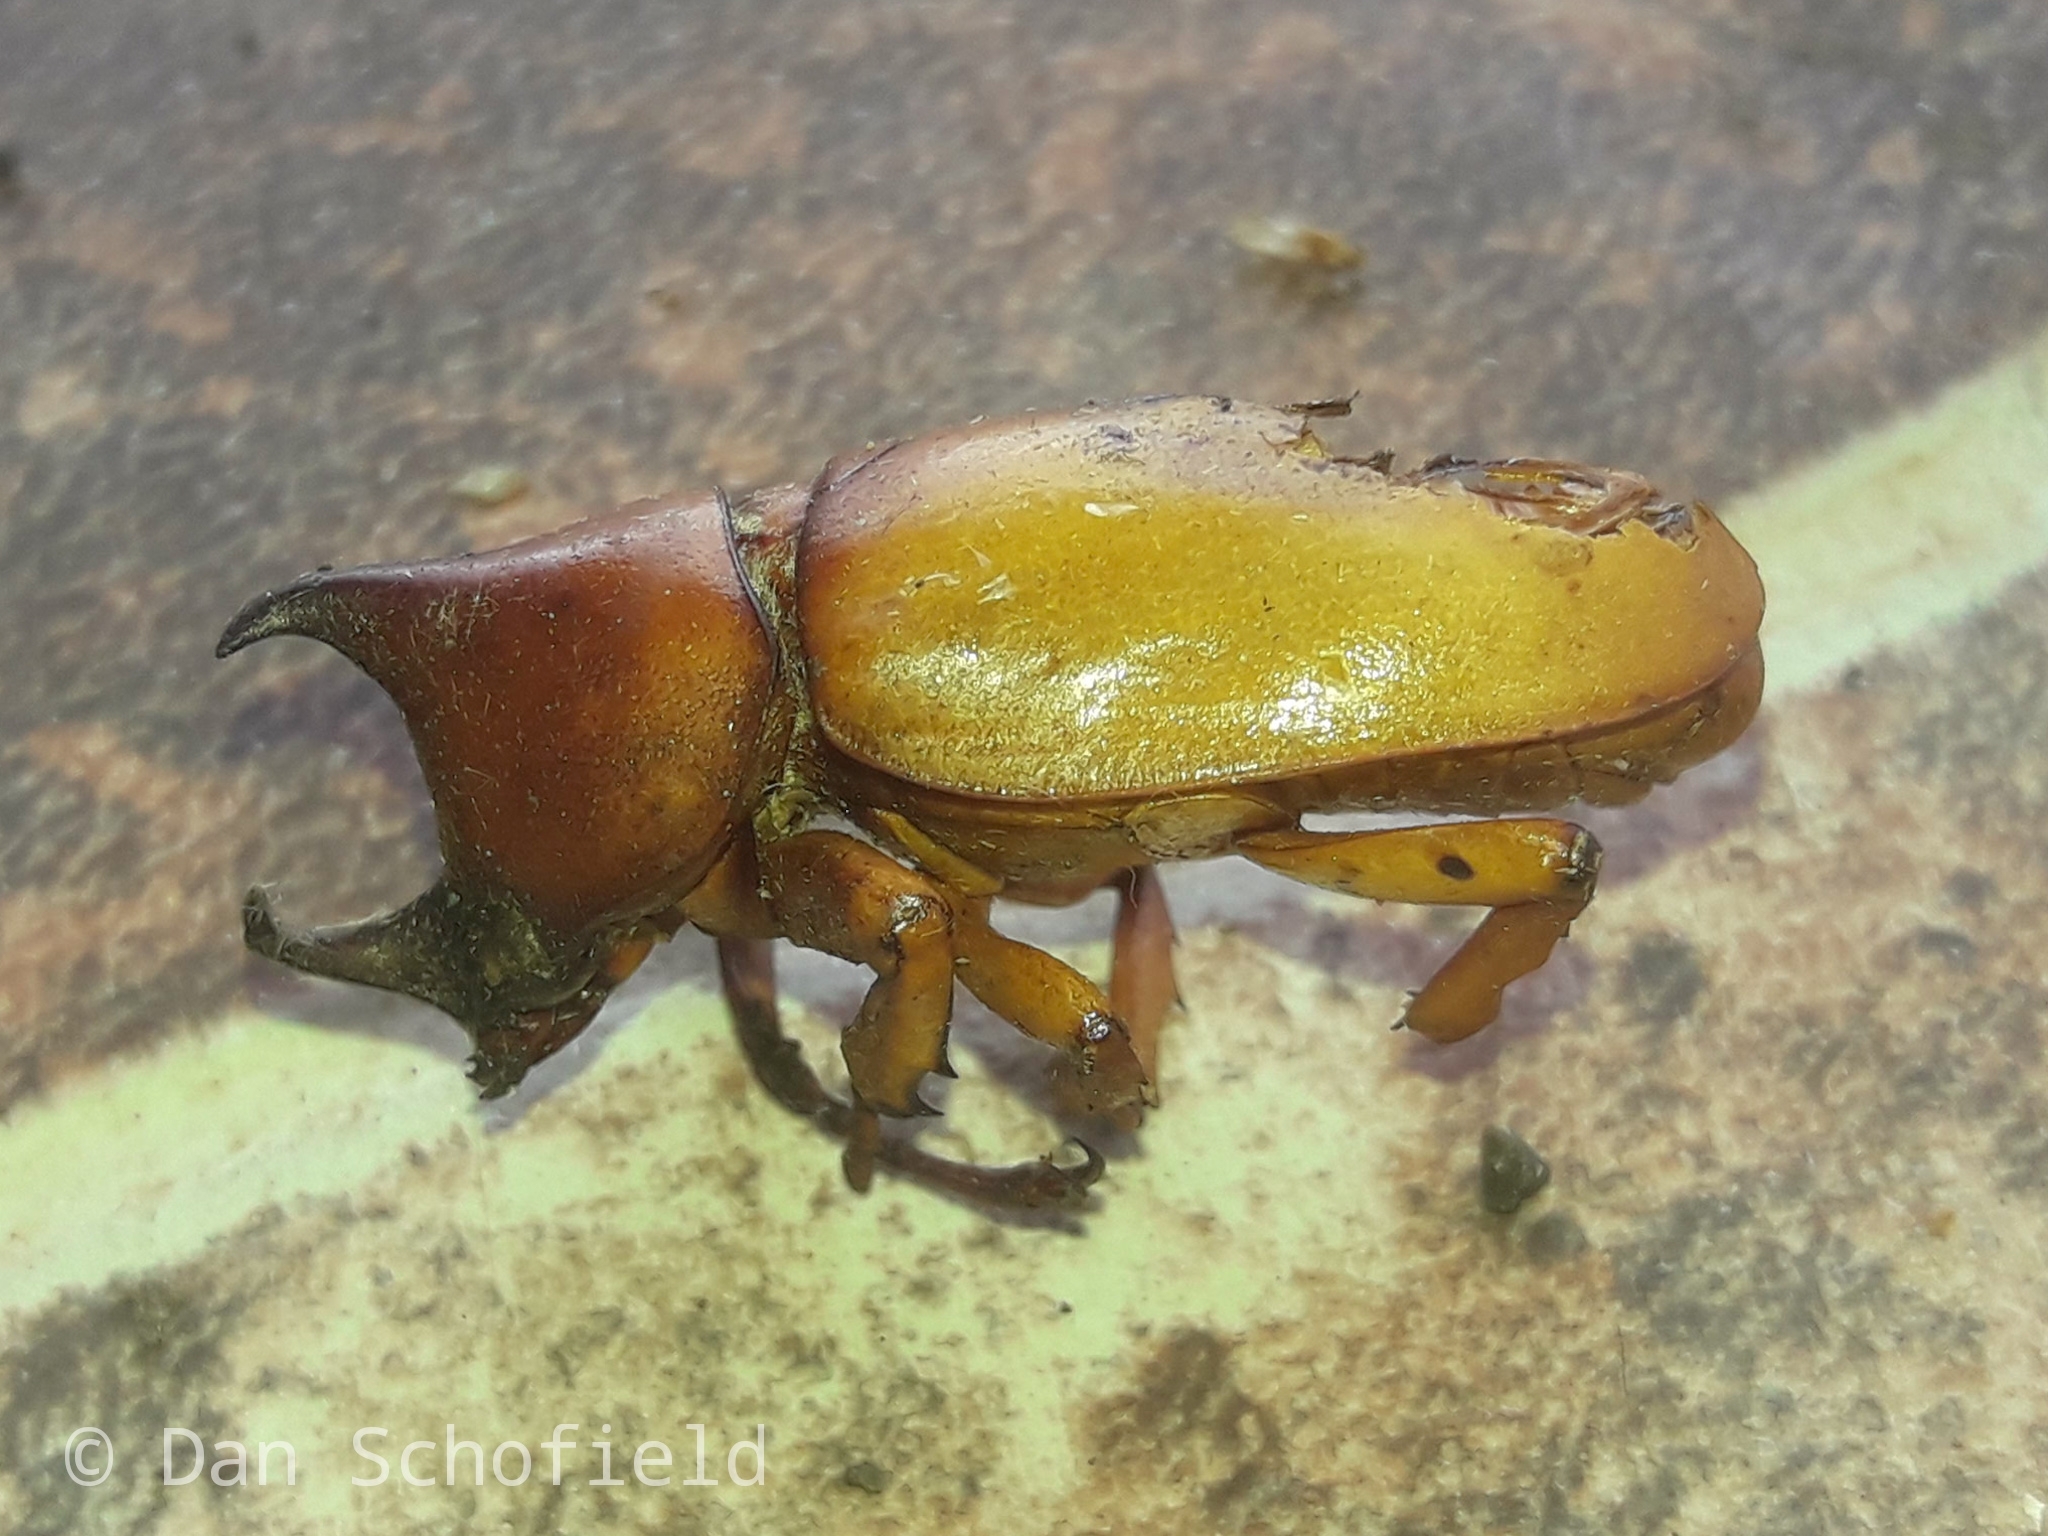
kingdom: Animalia
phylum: Arthropoda
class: Insecta
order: Coleoptera
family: Scarabaeidae
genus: Xylotrupes
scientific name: Xylotrupes lorquini
